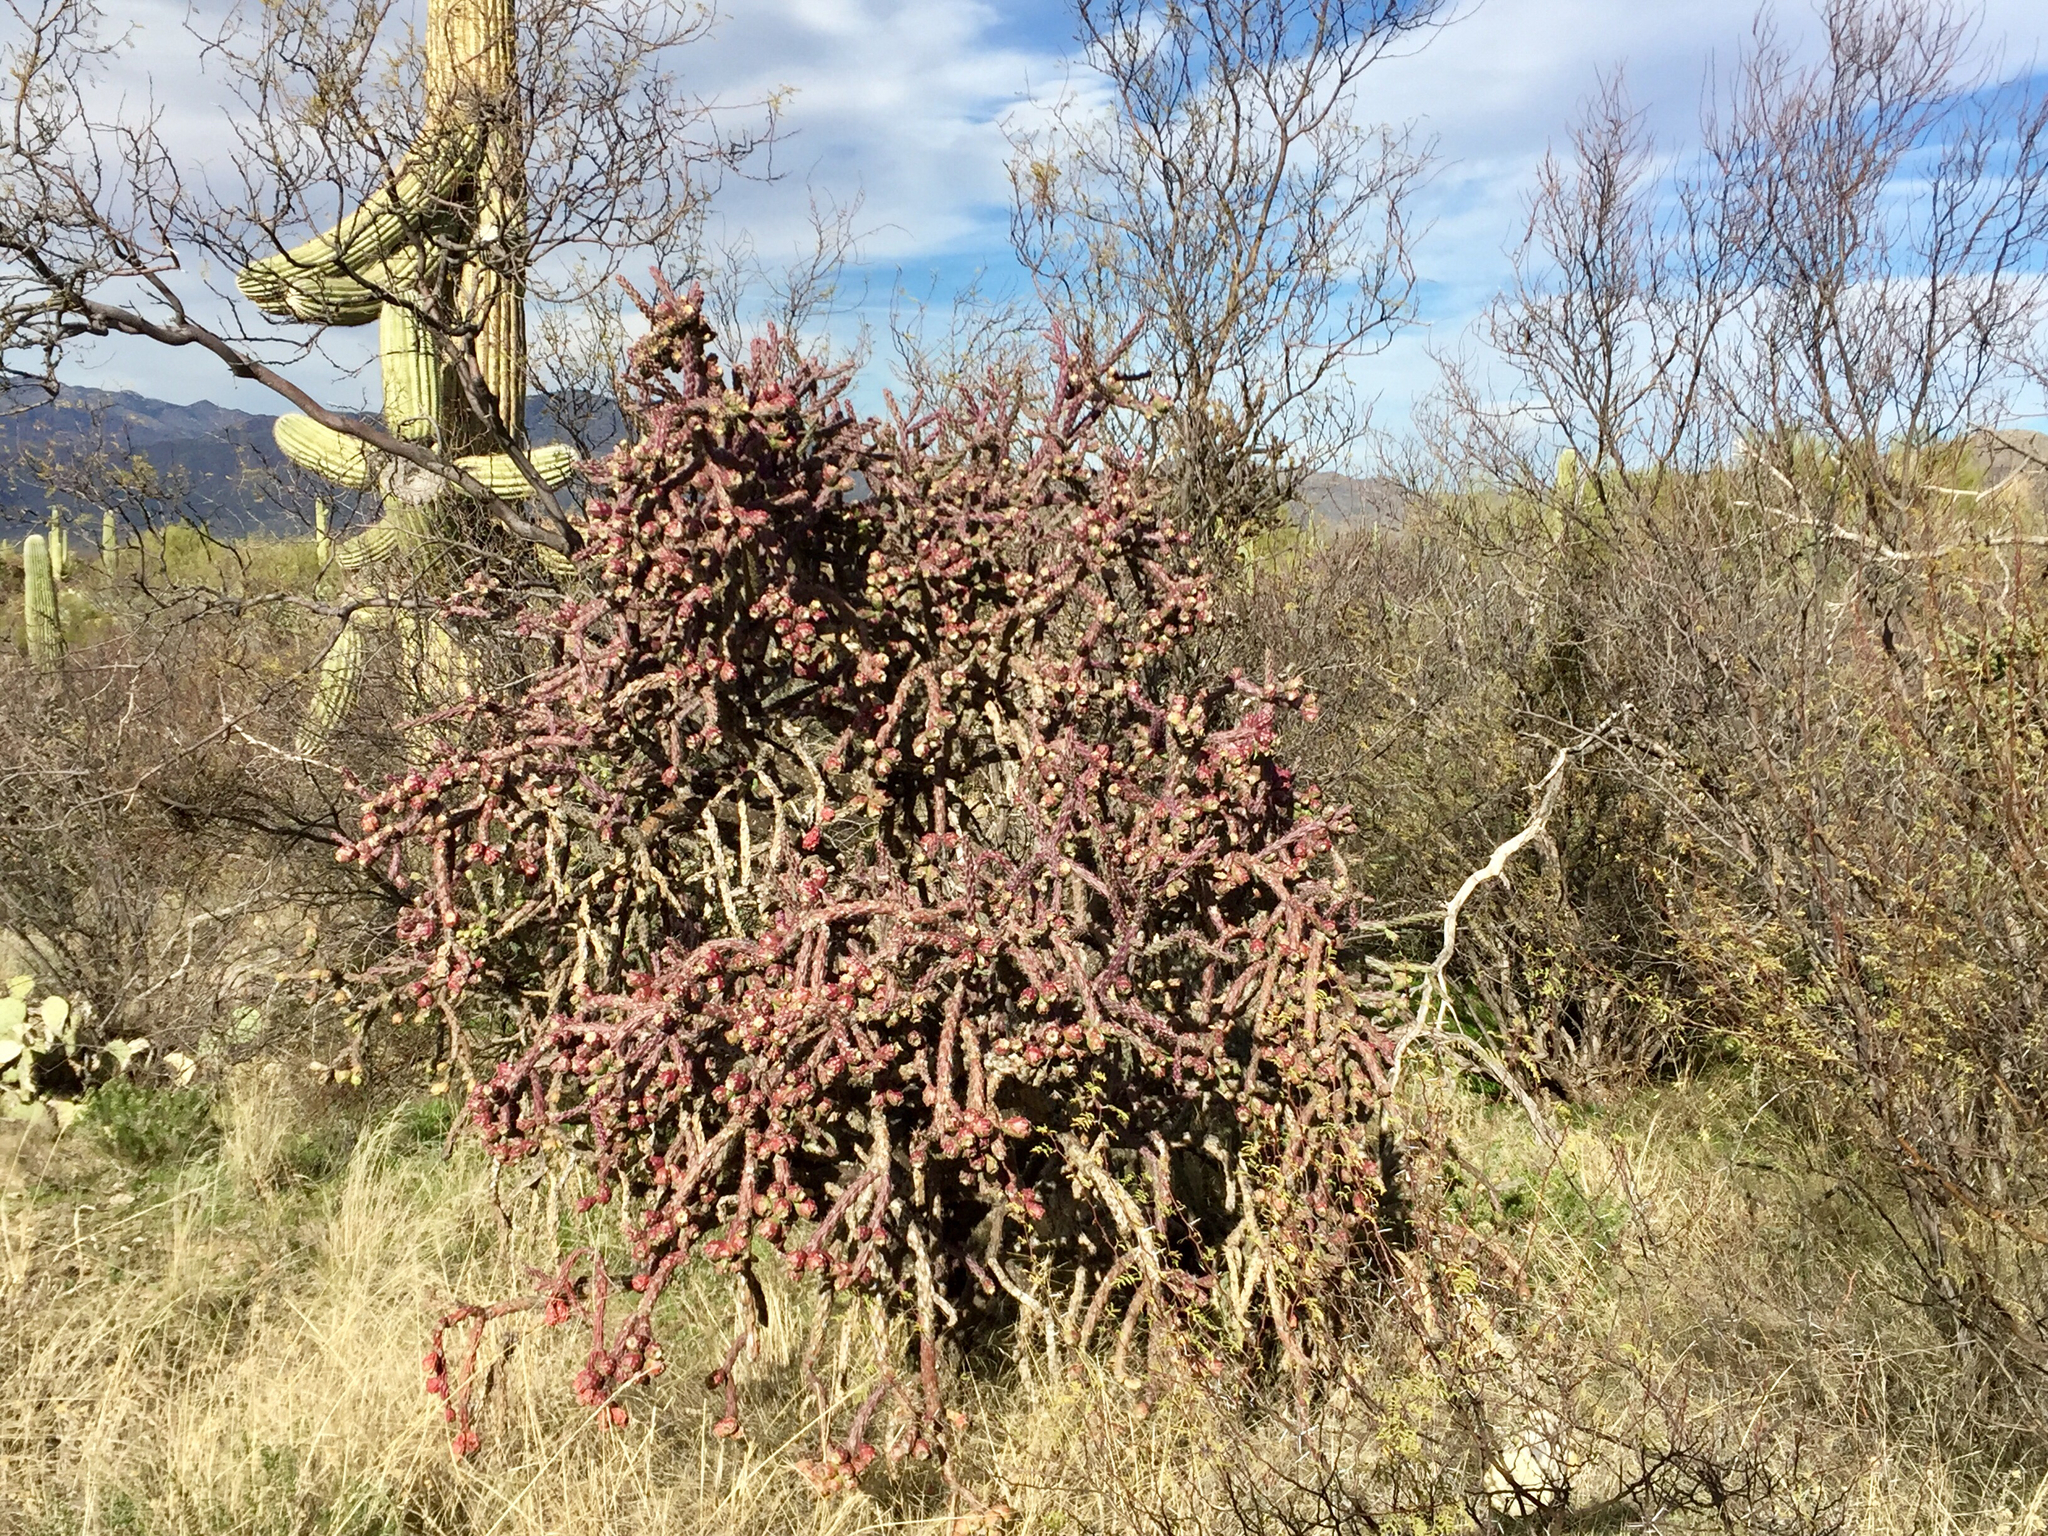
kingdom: Plantae
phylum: Tracheophyta
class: Magnoliopsida
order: Caryophyllales
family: Cactaceae
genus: Cylindropuntia
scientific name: Cylindropuntia thurberi
